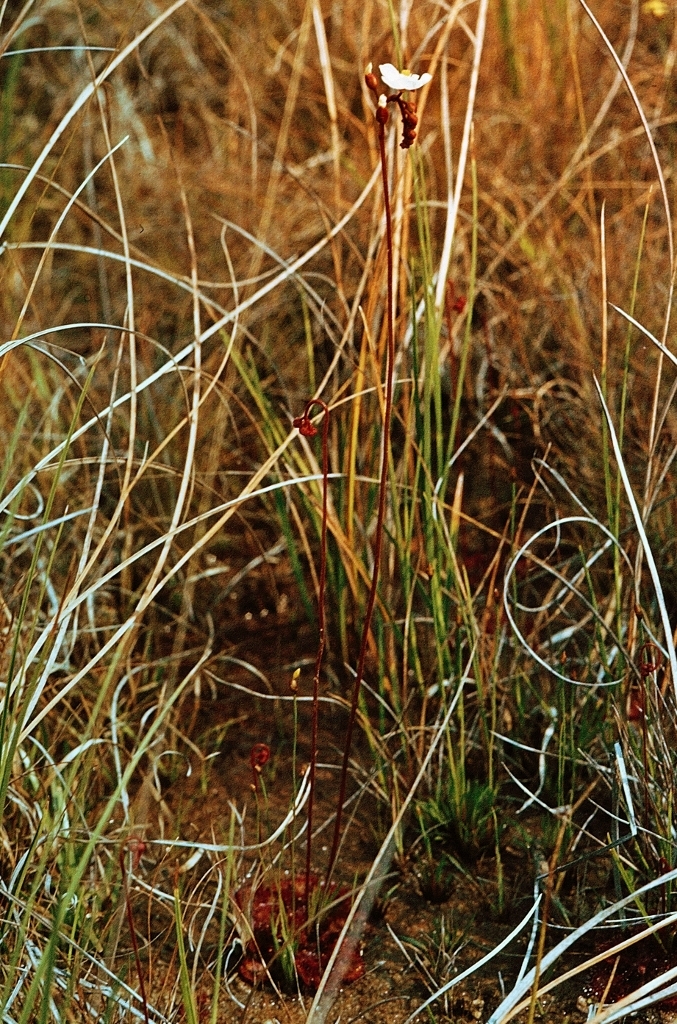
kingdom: Plantae
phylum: Tracheophyta
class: Magnoliopsida
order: Caryophyllales
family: Droseraceae
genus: Drosera
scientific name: Drosera burkeana
